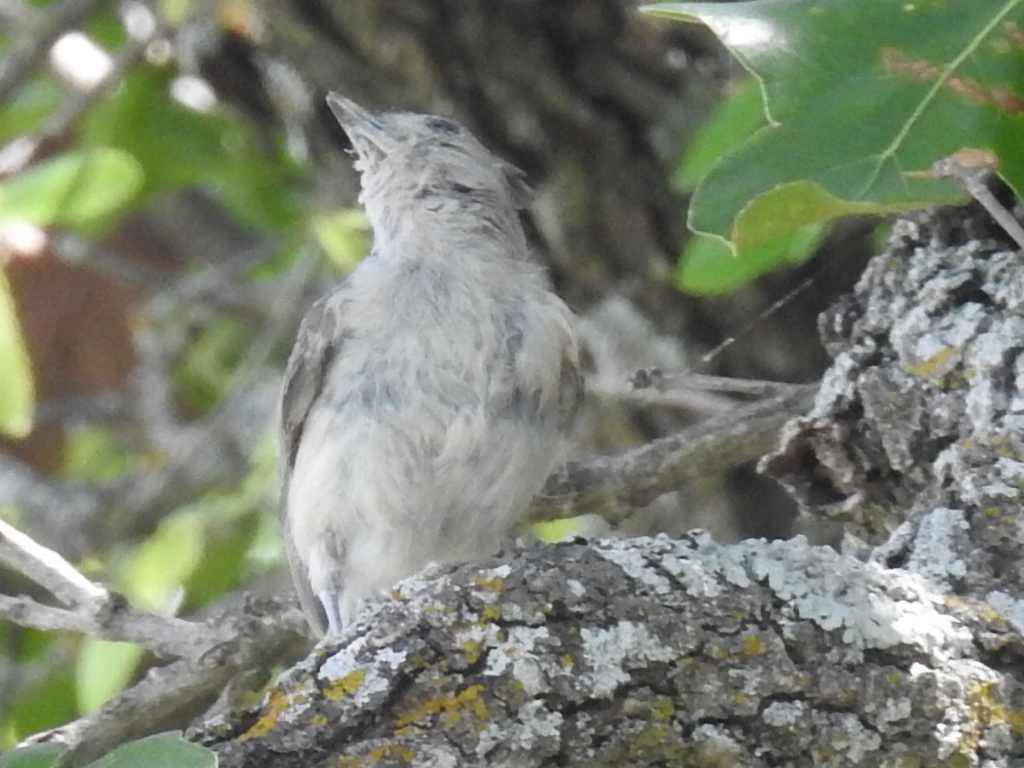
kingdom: Animalia
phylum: Chordata
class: Aves
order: Passeriformes
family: Paridae
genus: Baeolophus
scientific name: Baeolophus atricristatus
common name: Black-crested titmouse
